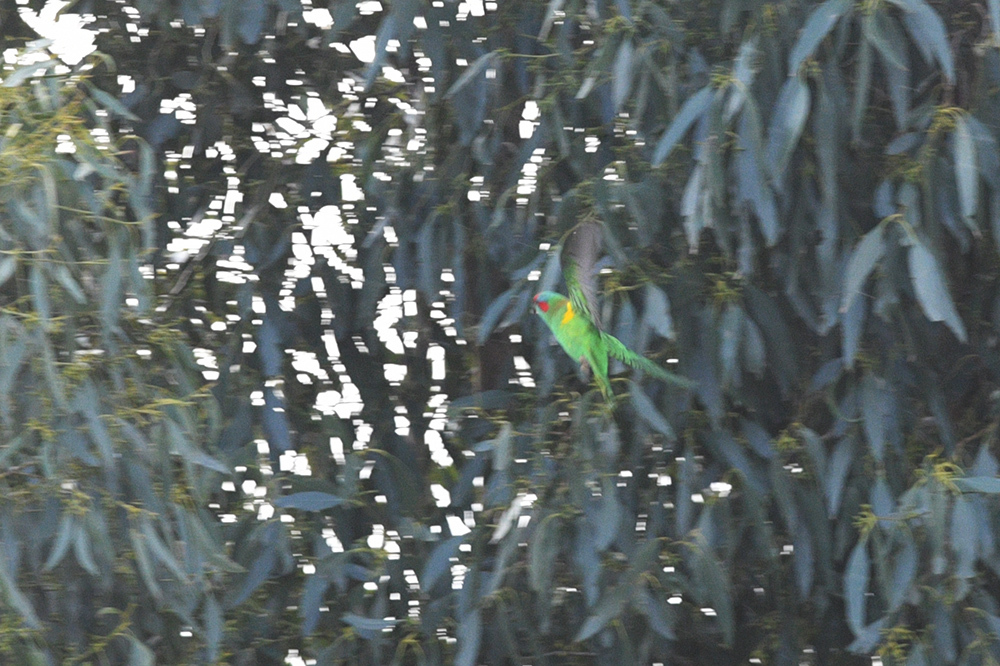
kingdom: Animalia
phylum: Chordata
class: Aves
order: Psittaciformes
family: Psittacidae
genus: Glossopsitta
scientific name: Glossopsitta concinna
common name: Musk lorikeet
